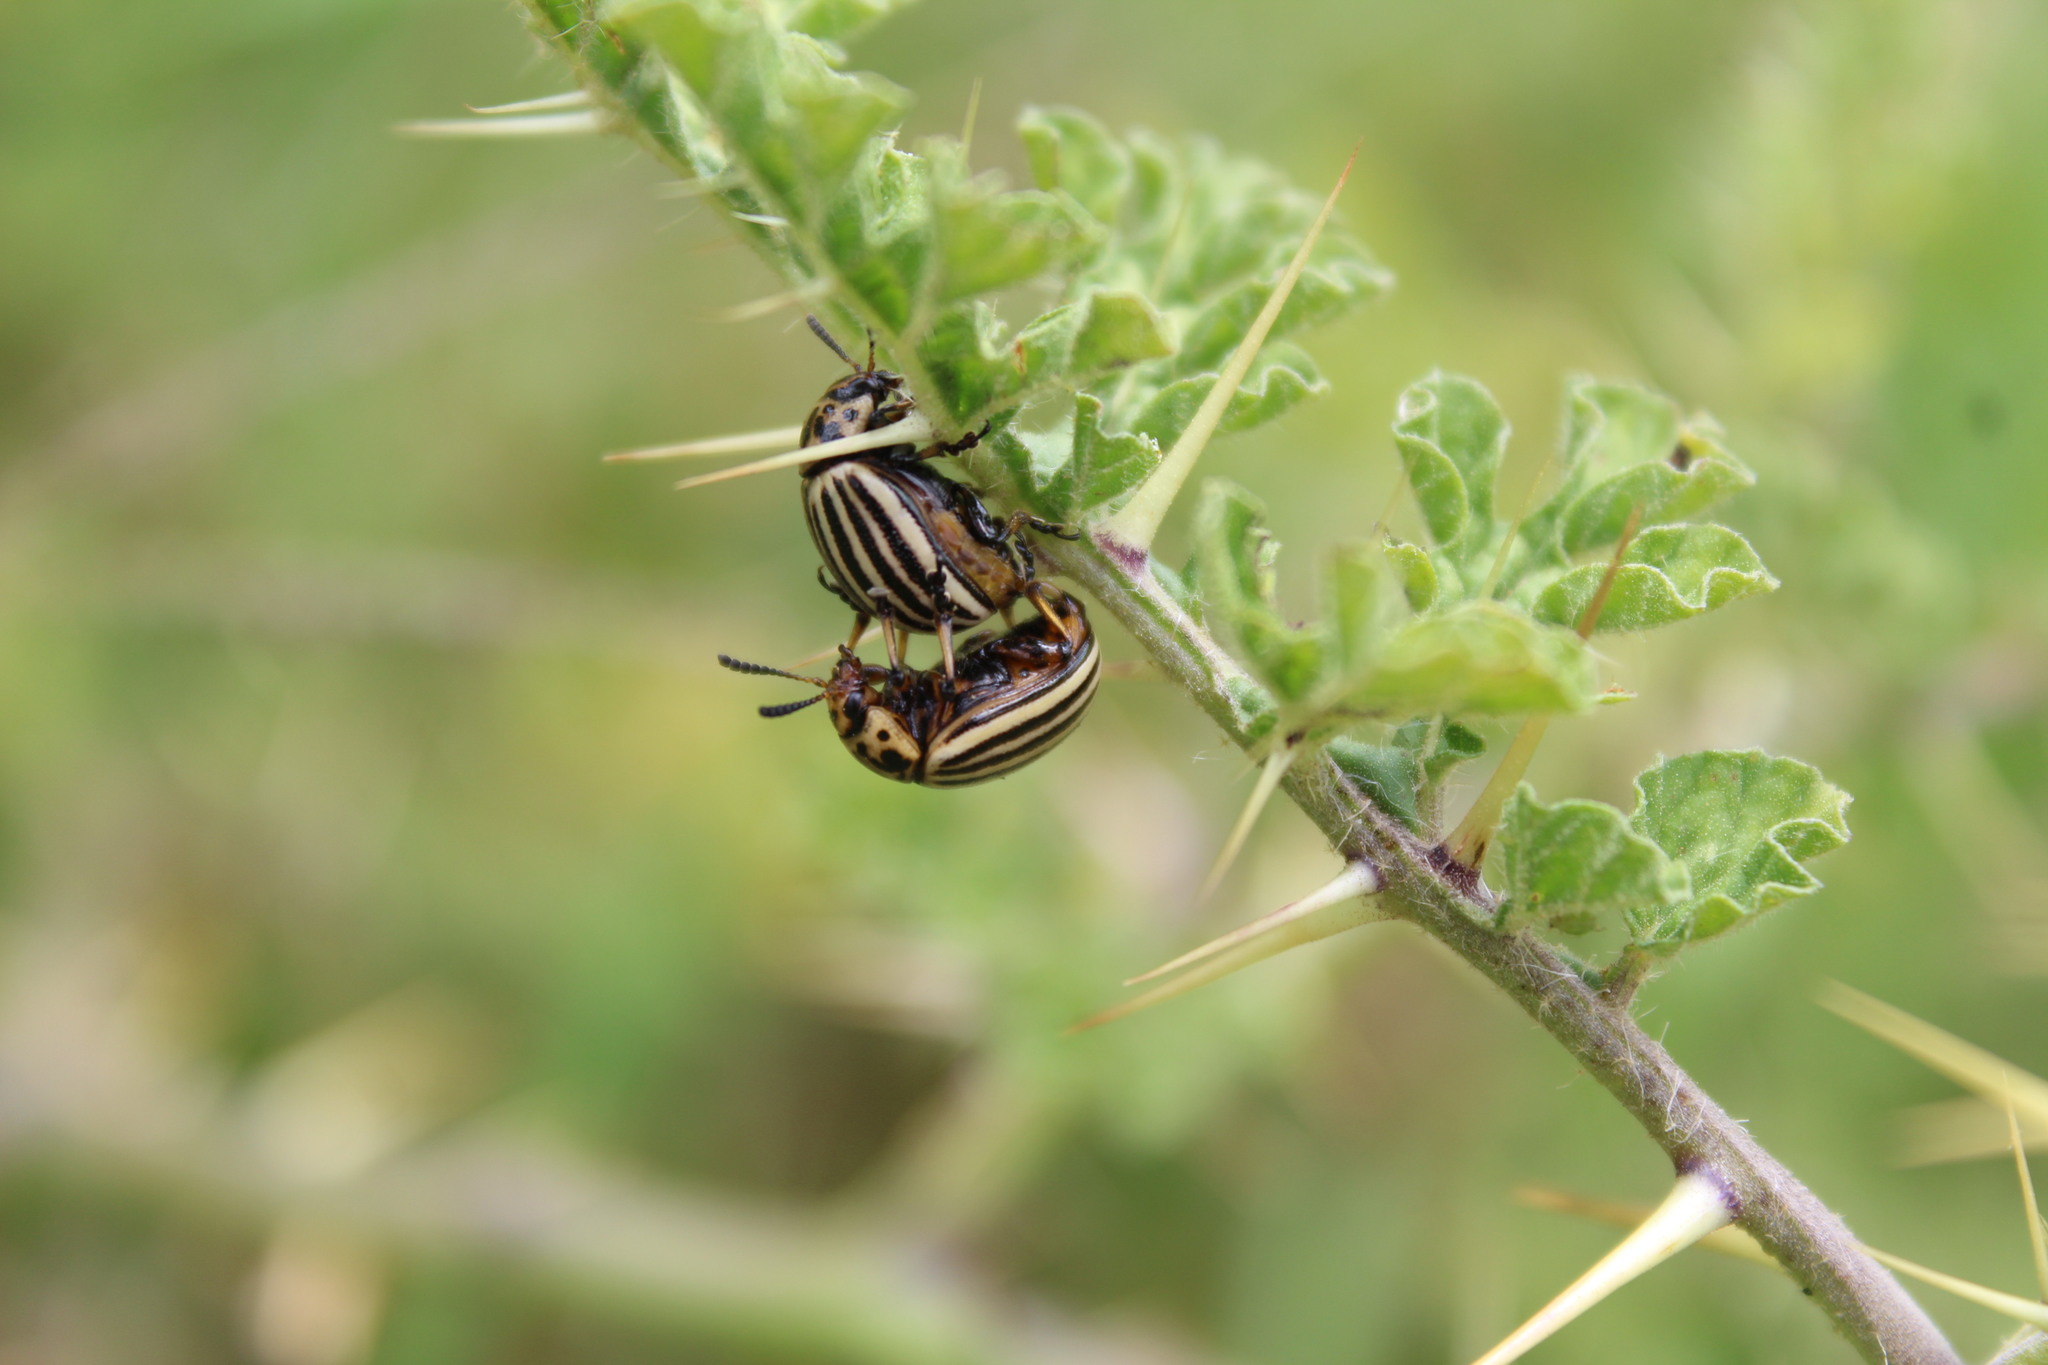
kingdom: Animalia
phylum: Arthropoda
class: Insecta
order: Coleoptera
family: Chrysomelidae
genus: Leptinotarsa
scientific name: Leptinotarsa decemlineata
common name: Colorado potato beetle
